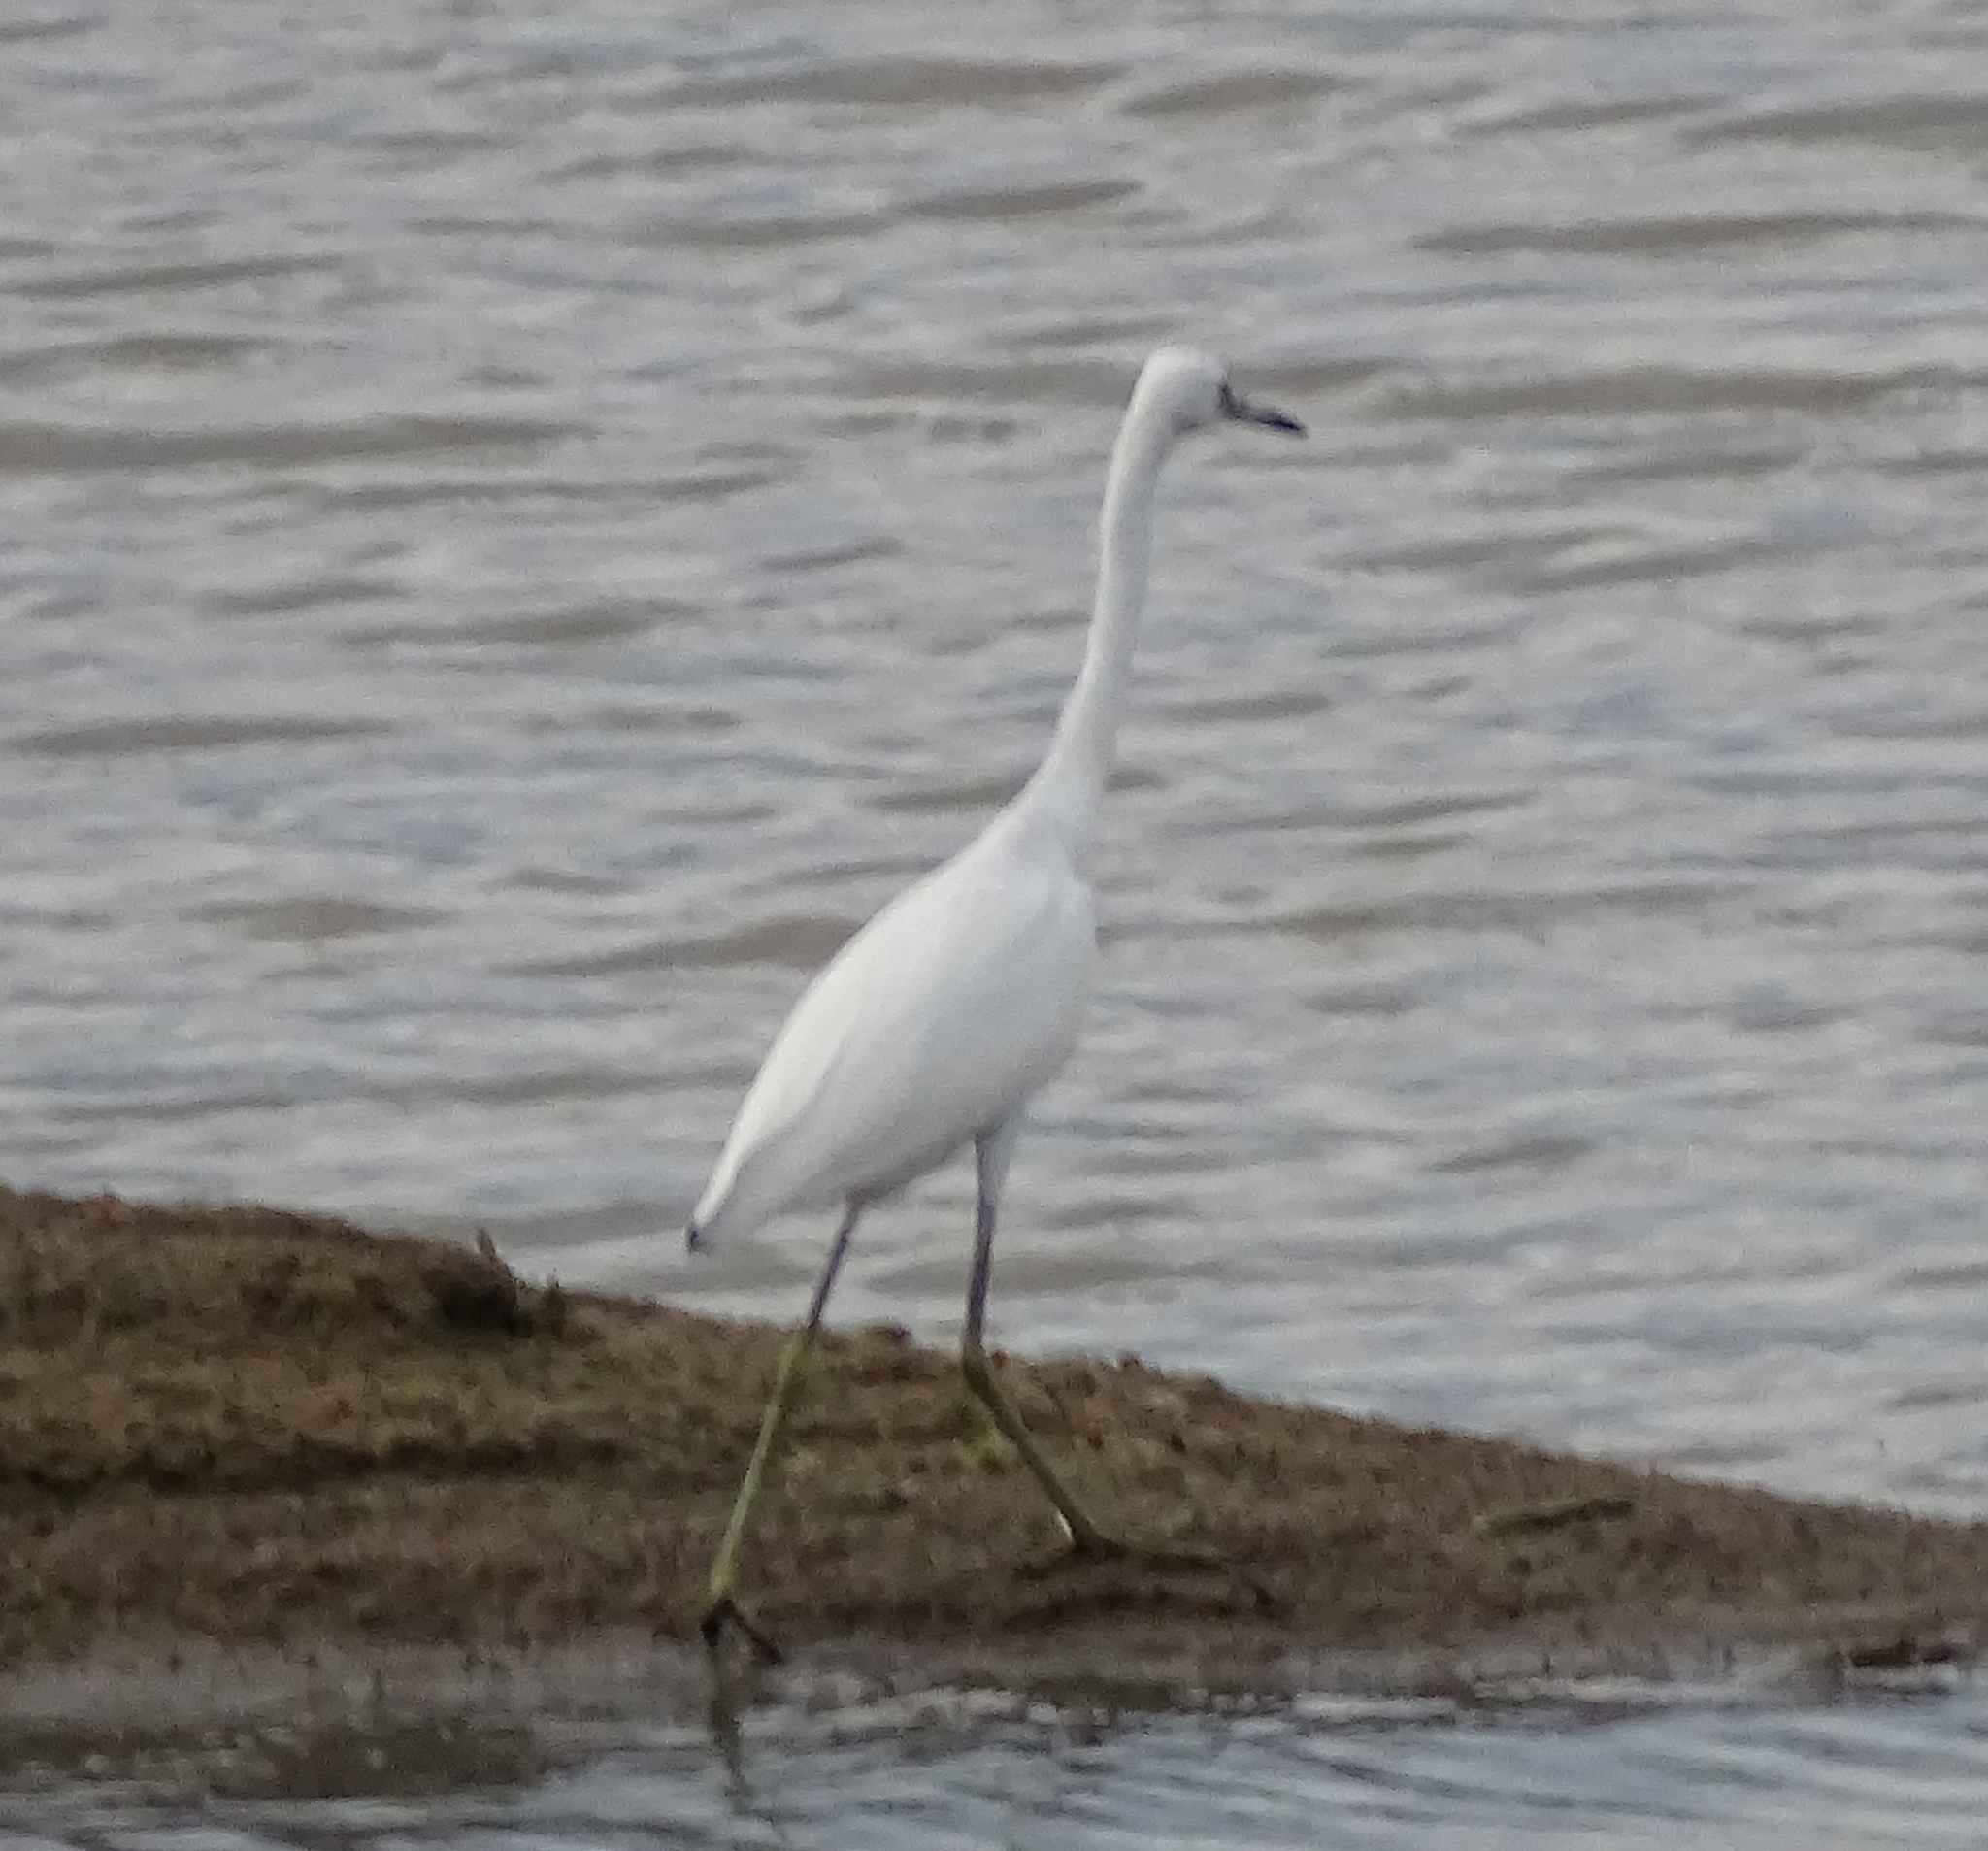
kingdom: Animalia
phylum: Chordata
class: Aves
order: Pelecaniformes
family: Ardeidae
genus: Egretta
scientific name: Egretta caerulea
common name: Little blue heron
